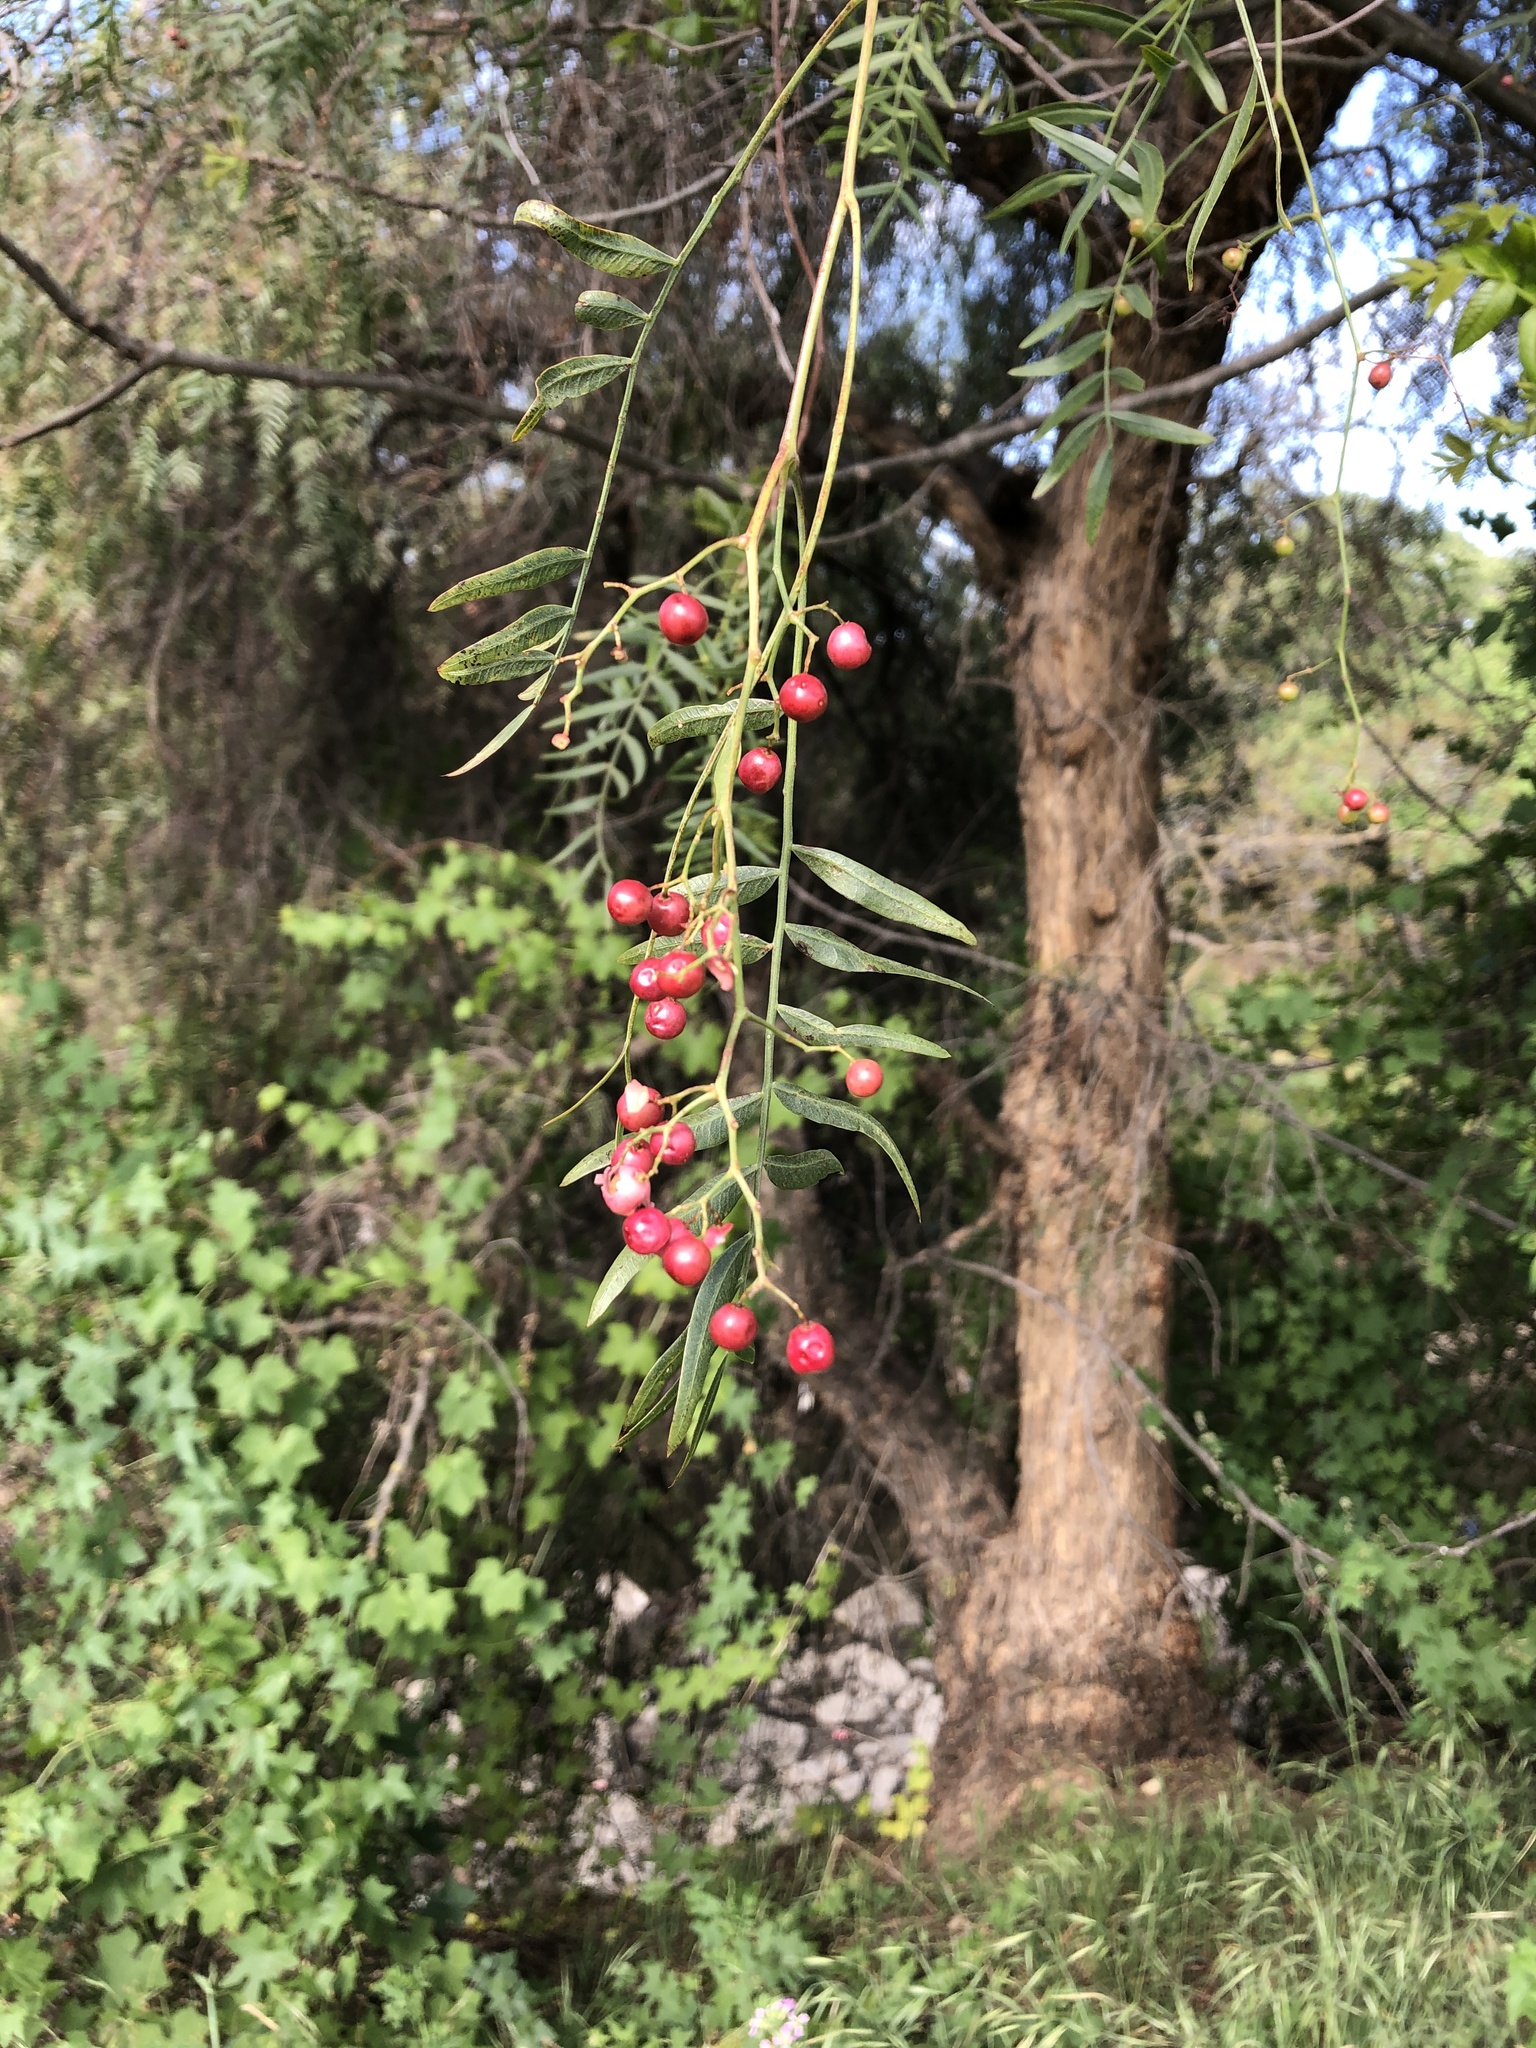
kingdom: Plantae
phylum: Tracheophyta
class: Magnoliopsida
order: Sapindales
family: Anacardiaceae
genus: Schinus
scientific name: Schinus molle
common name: Peruvian peppertree
